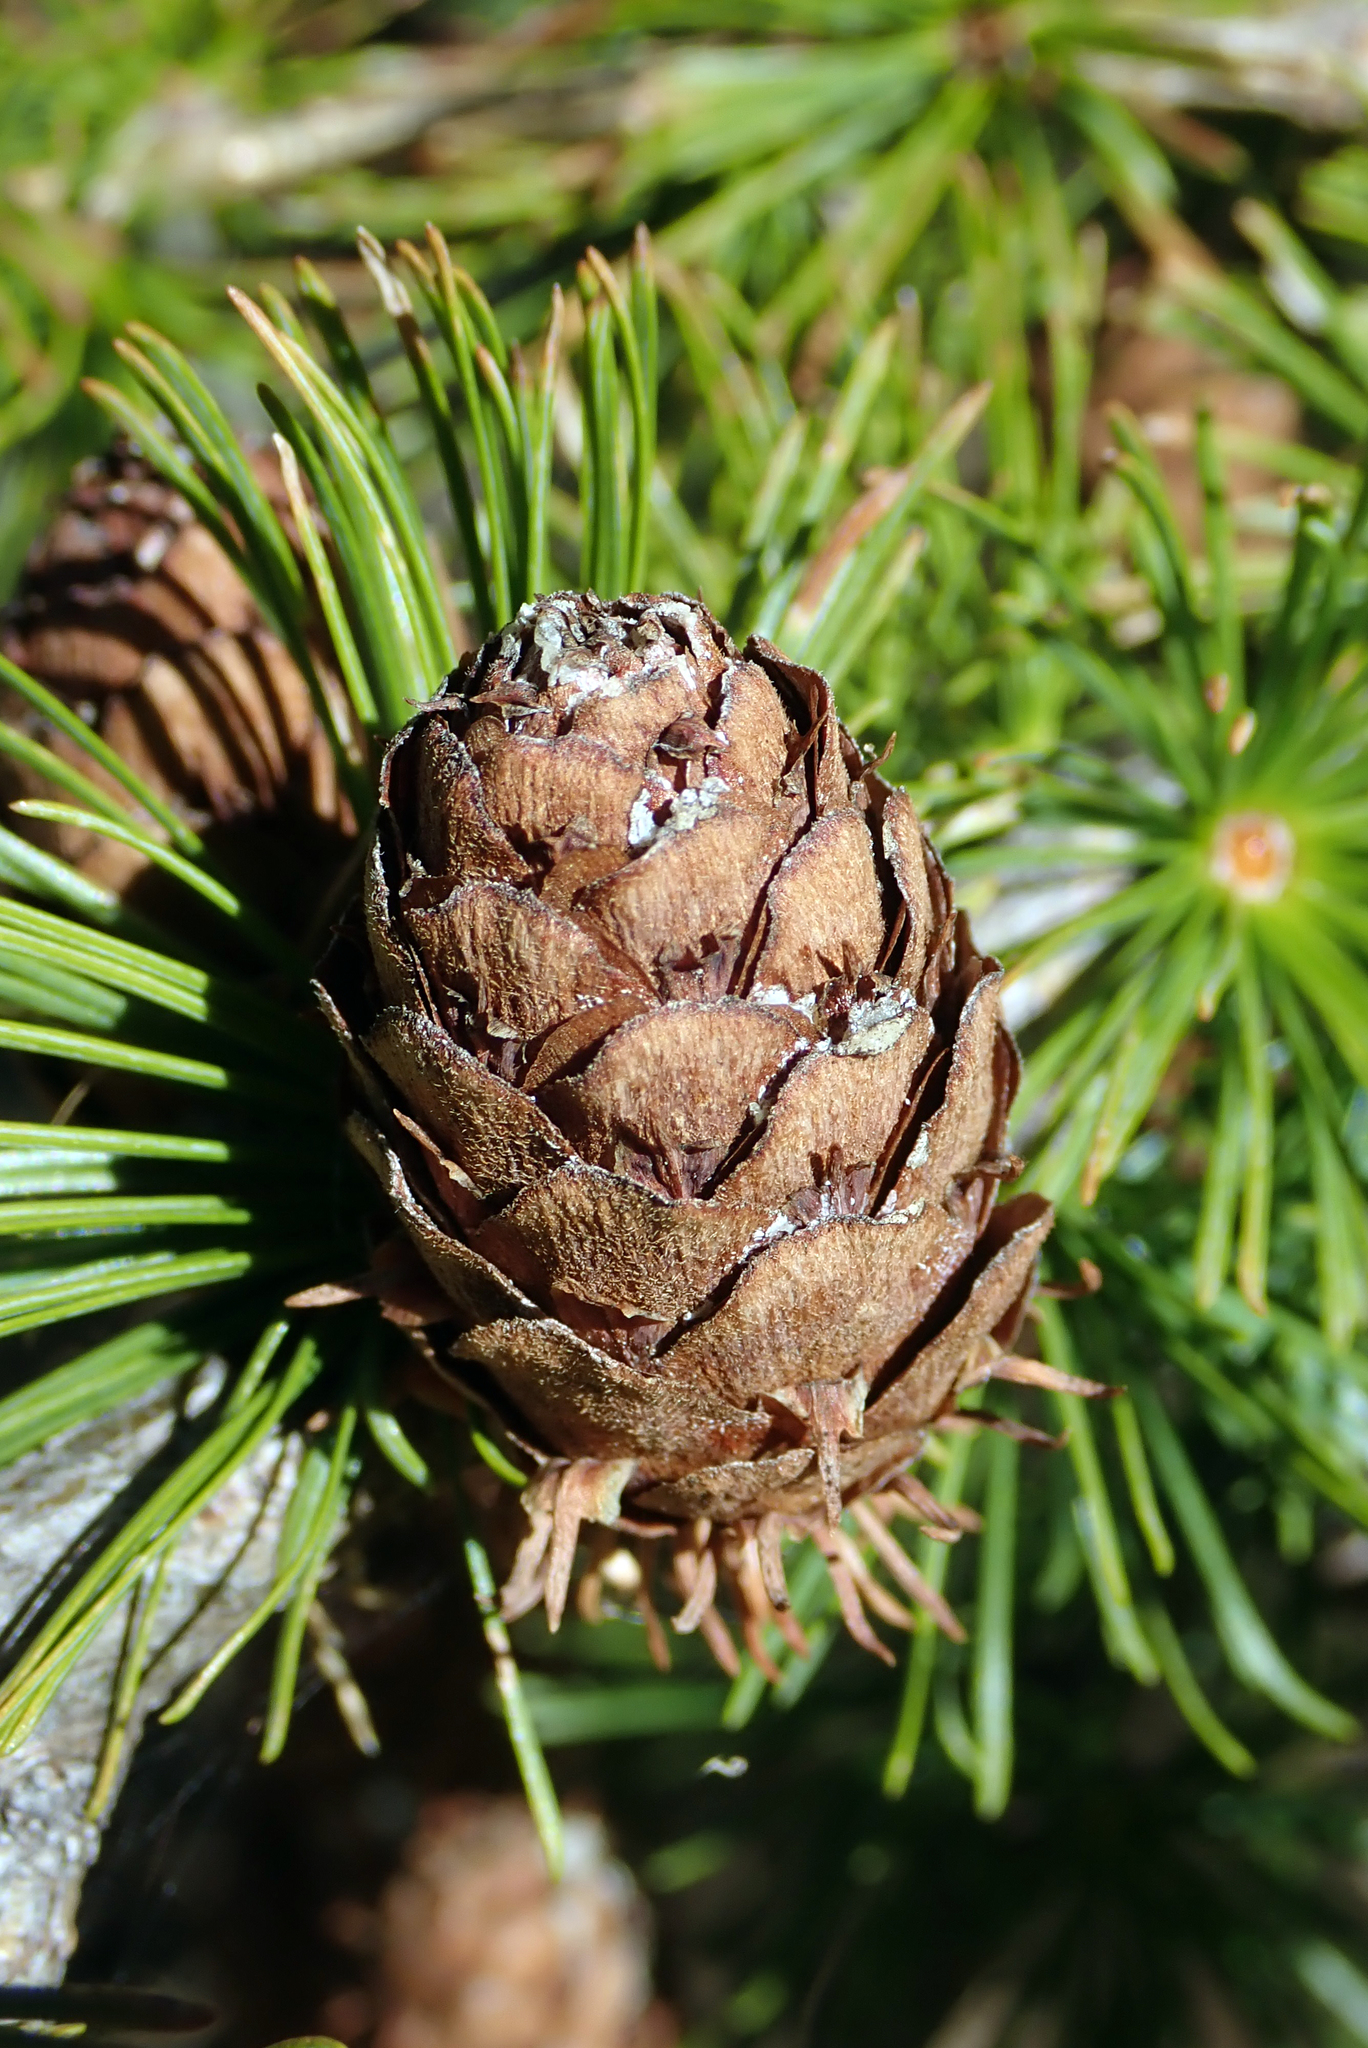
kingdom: Plantae
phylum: Tracheophyta
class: Pinopsida
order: Pinales
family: Pinaceae
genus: Larix
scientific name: Larix decidua
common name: European larch
